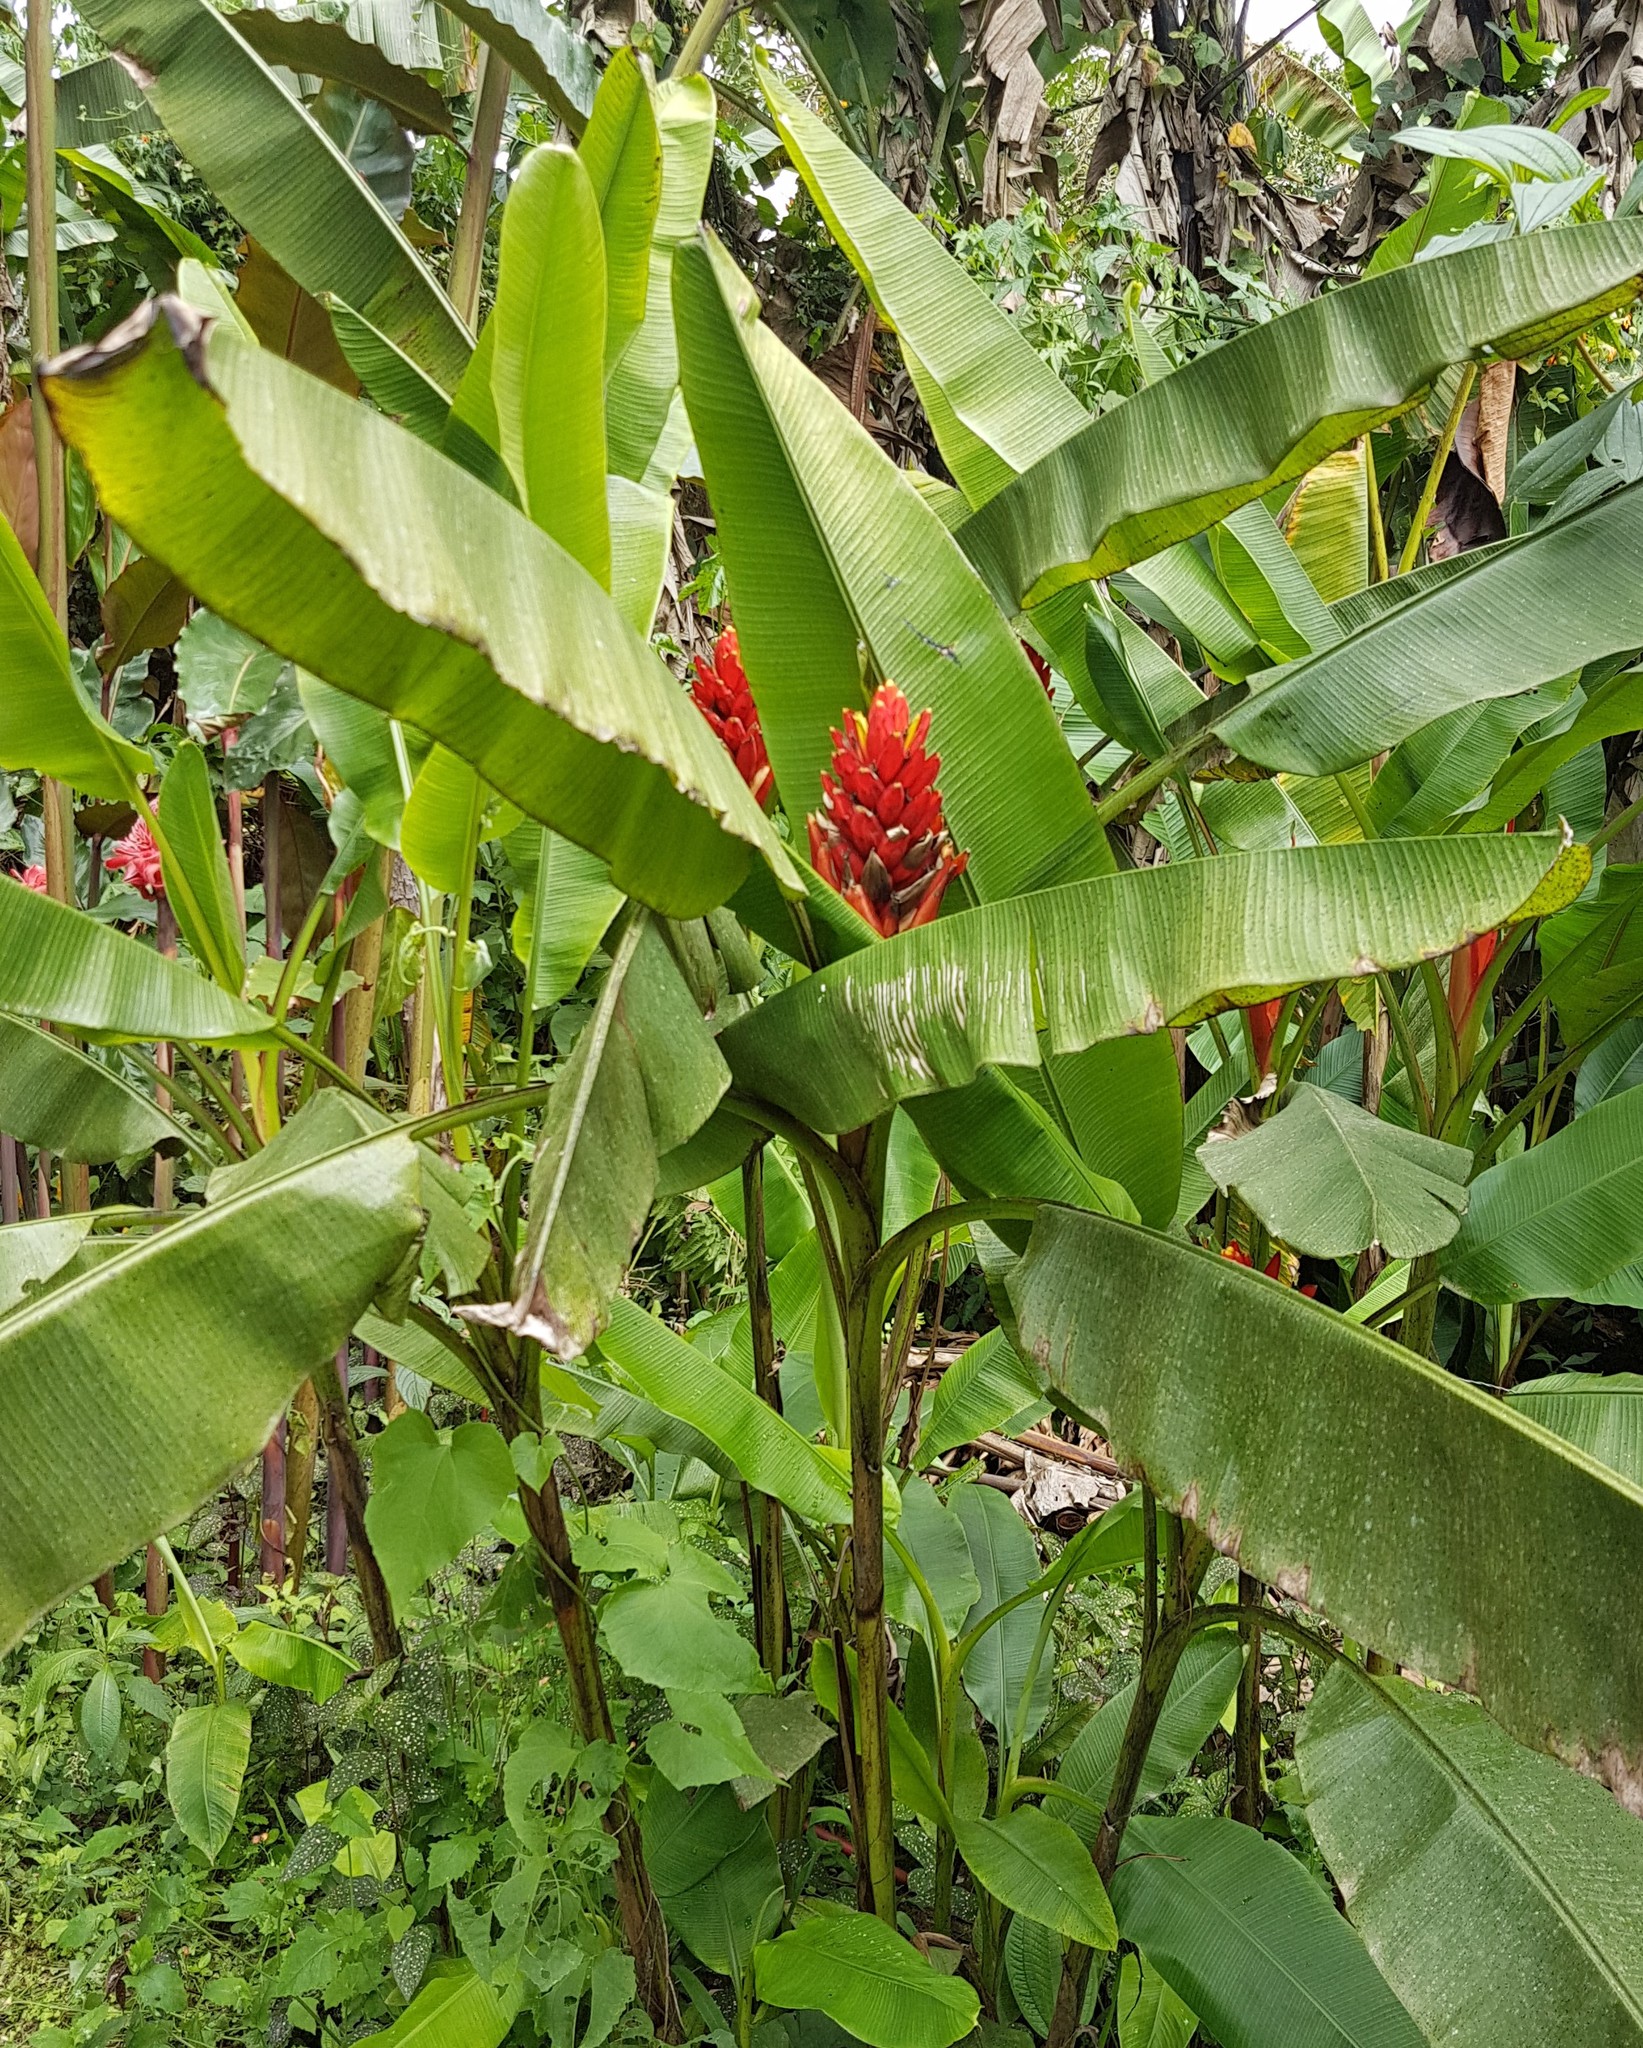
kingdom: Plantae
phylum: Tracheophyta
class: Liliopsida
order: Zingiberales
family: Musaceae
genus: Musa
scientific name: Musa coccinea
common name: Scarlet banana
